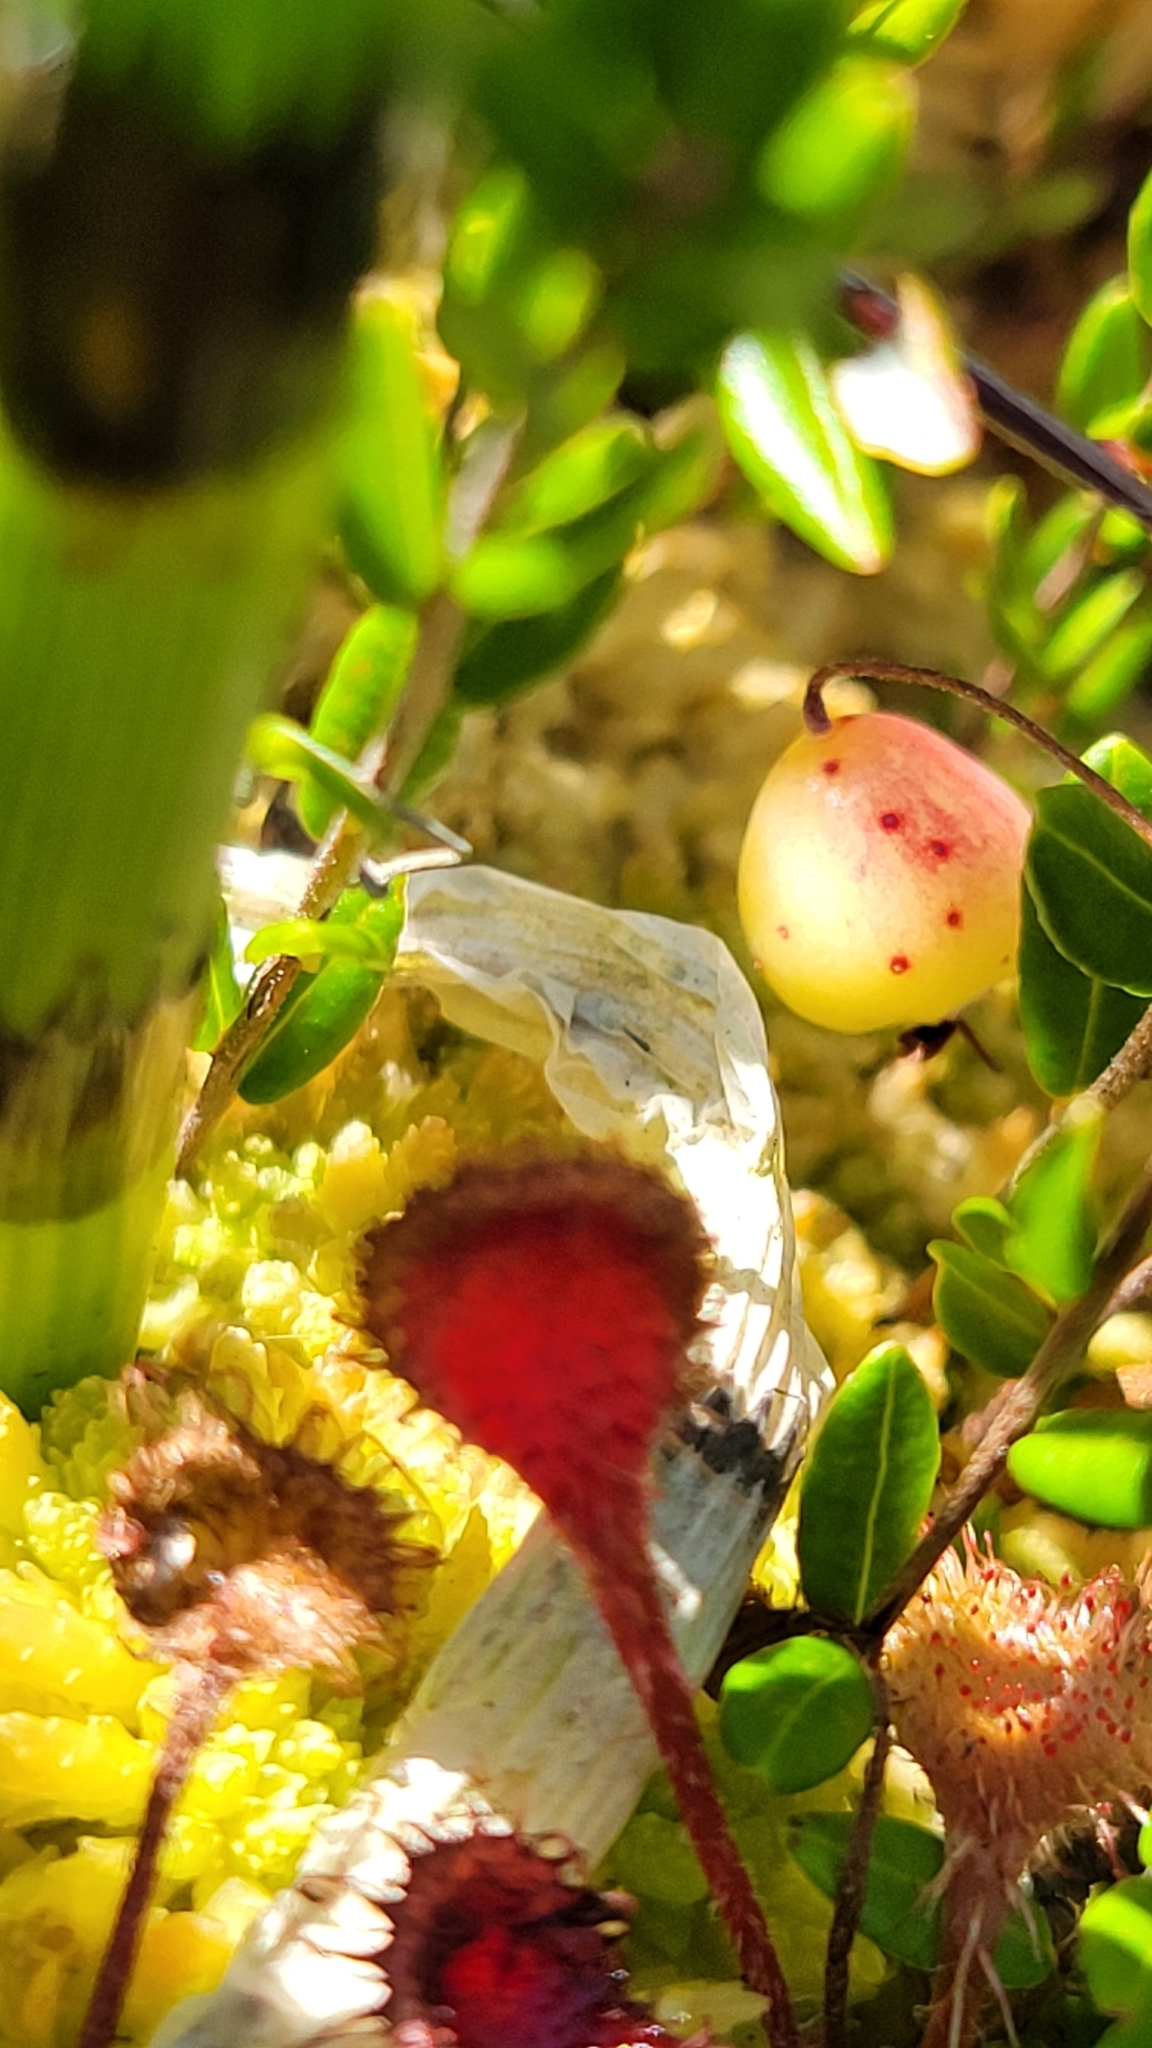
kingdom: Plantae
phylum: Tracheophyta
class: Magnoliopsida
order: Ericales
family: Ericaceae
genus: Vaccinium
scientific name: Vaccinium oxycoccos
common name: Cranberry
